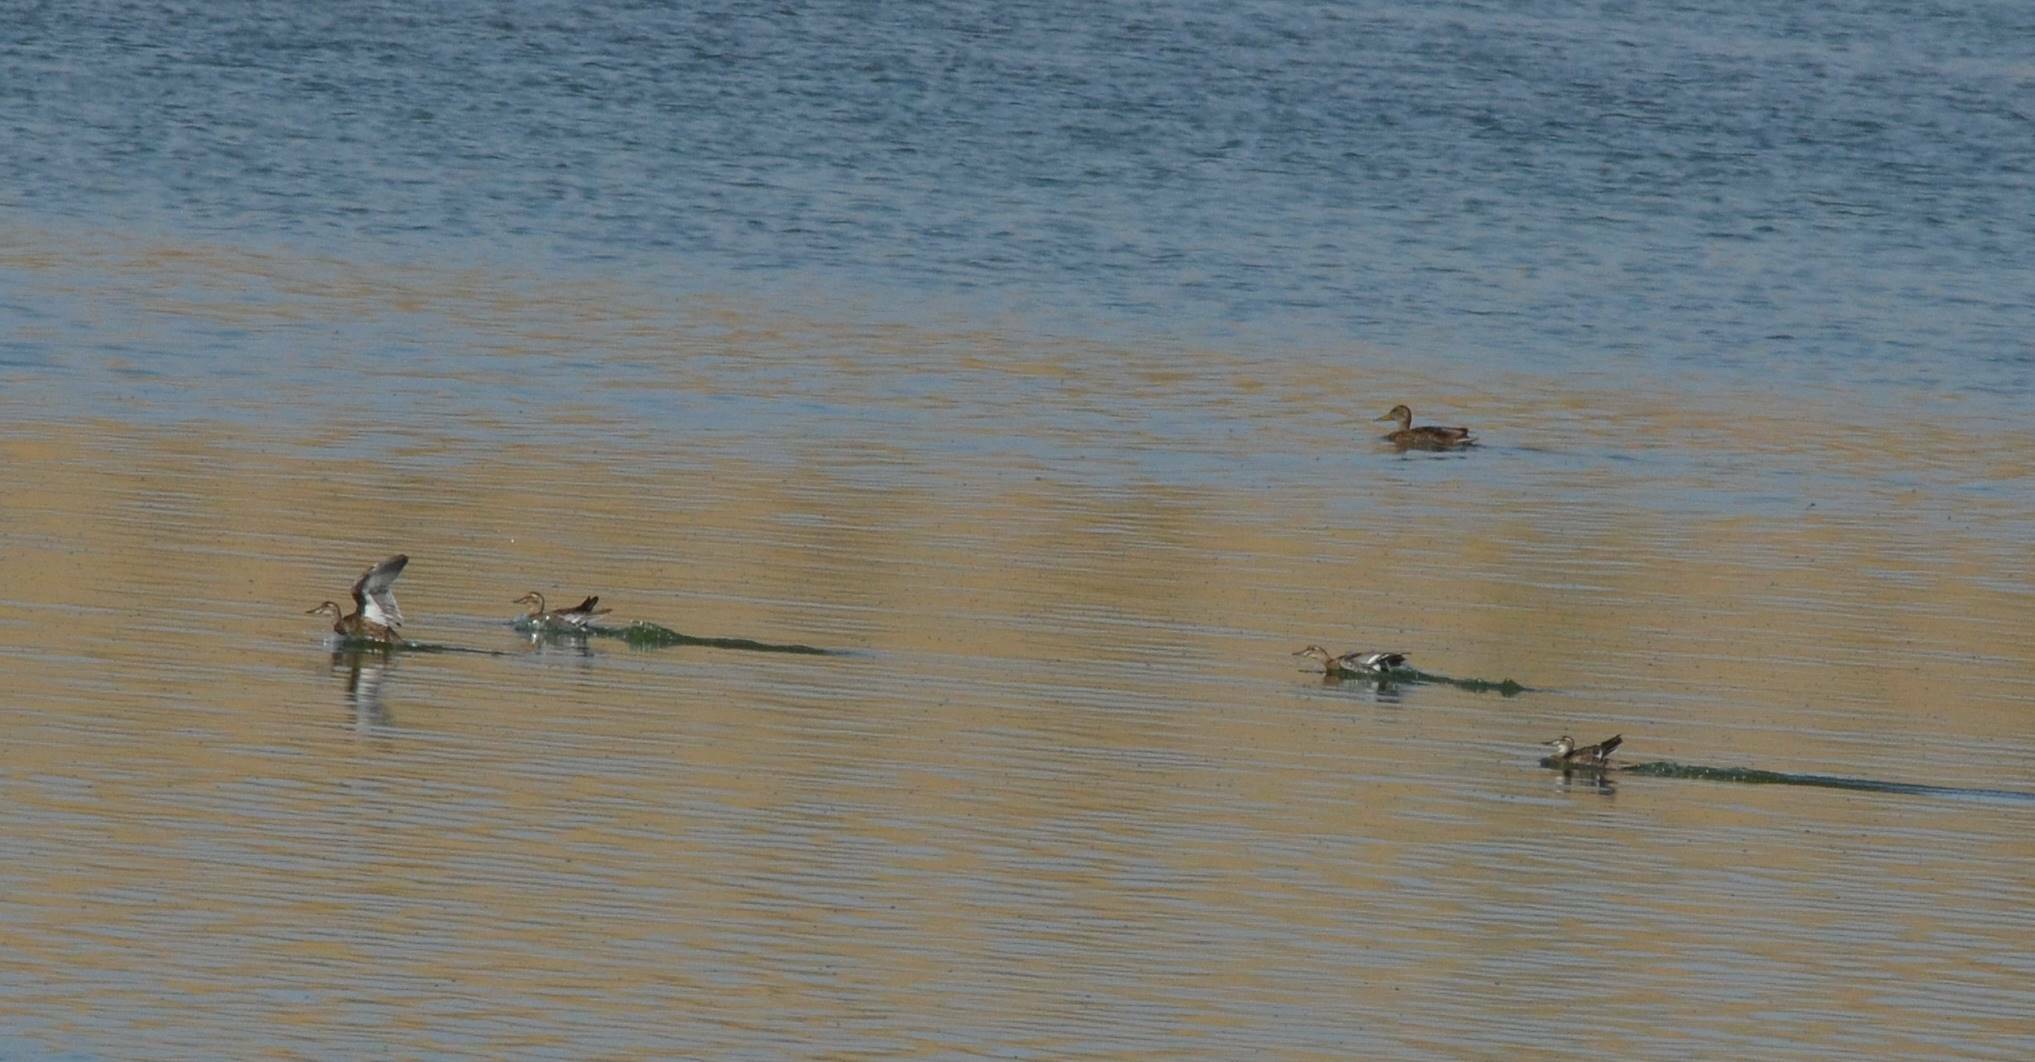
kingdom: Animalia
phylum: Chordata
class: Aves
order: Anseriformes
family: Anatidae
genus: Spatula
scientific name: Spatula querquedula
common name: Garganey
